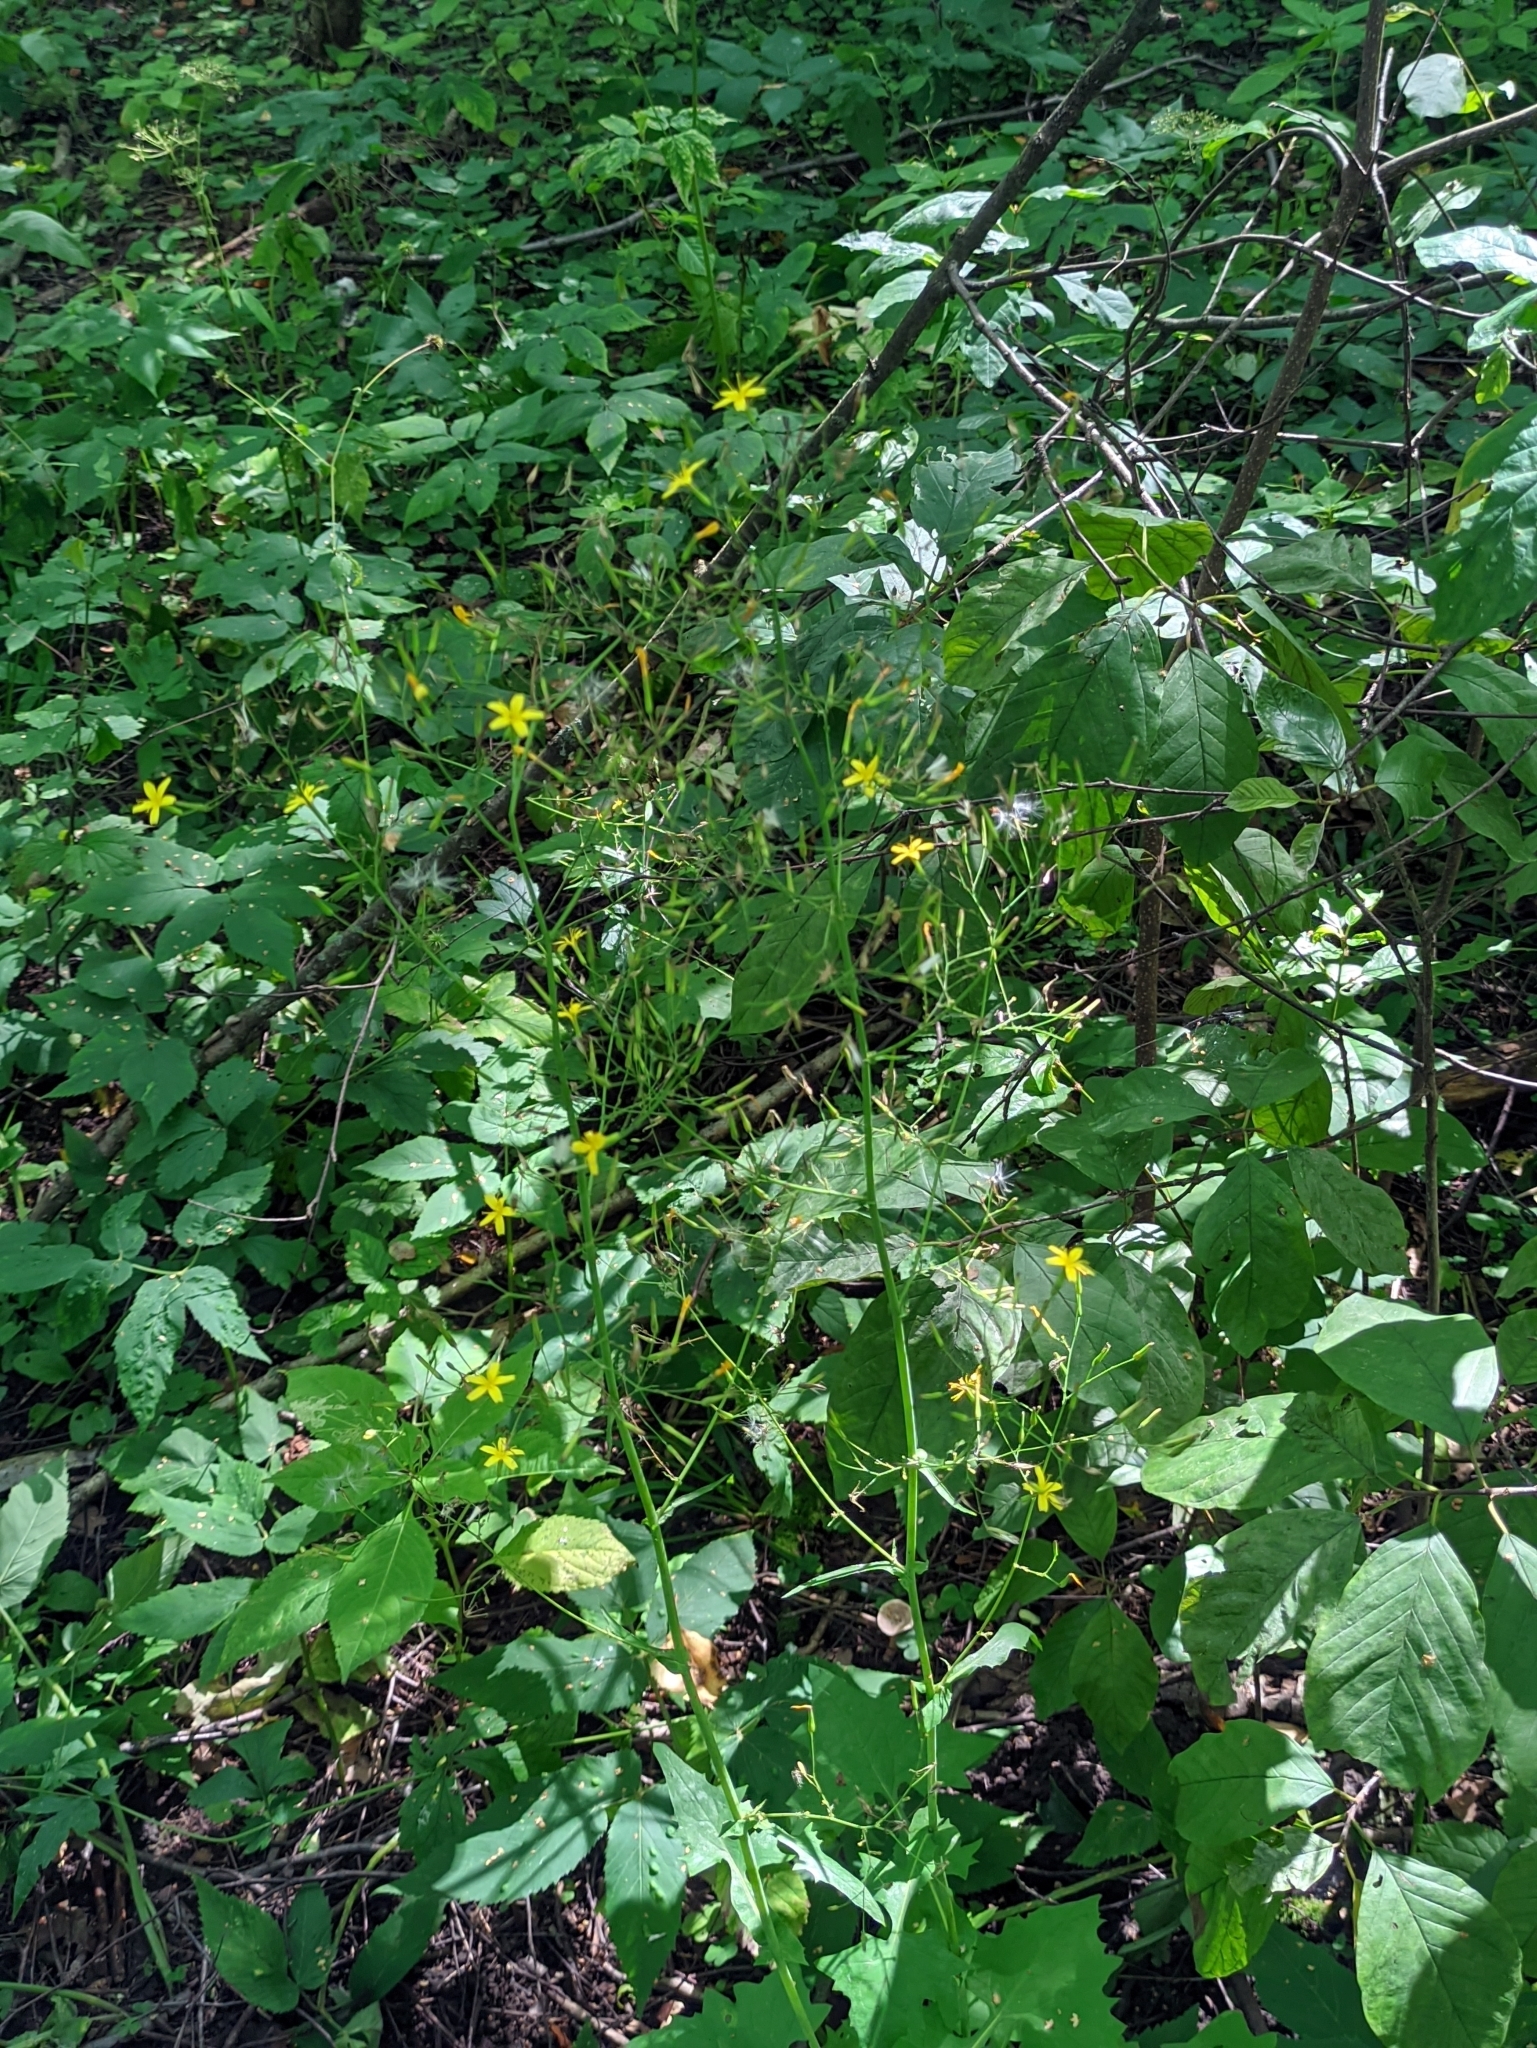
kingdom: Plantae
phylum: Tracheophyta
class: Magnoliopsida
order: Asterales
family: Asteraceae
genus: Mycelis
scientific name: Mycelis muralis
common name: Wall lettuce
